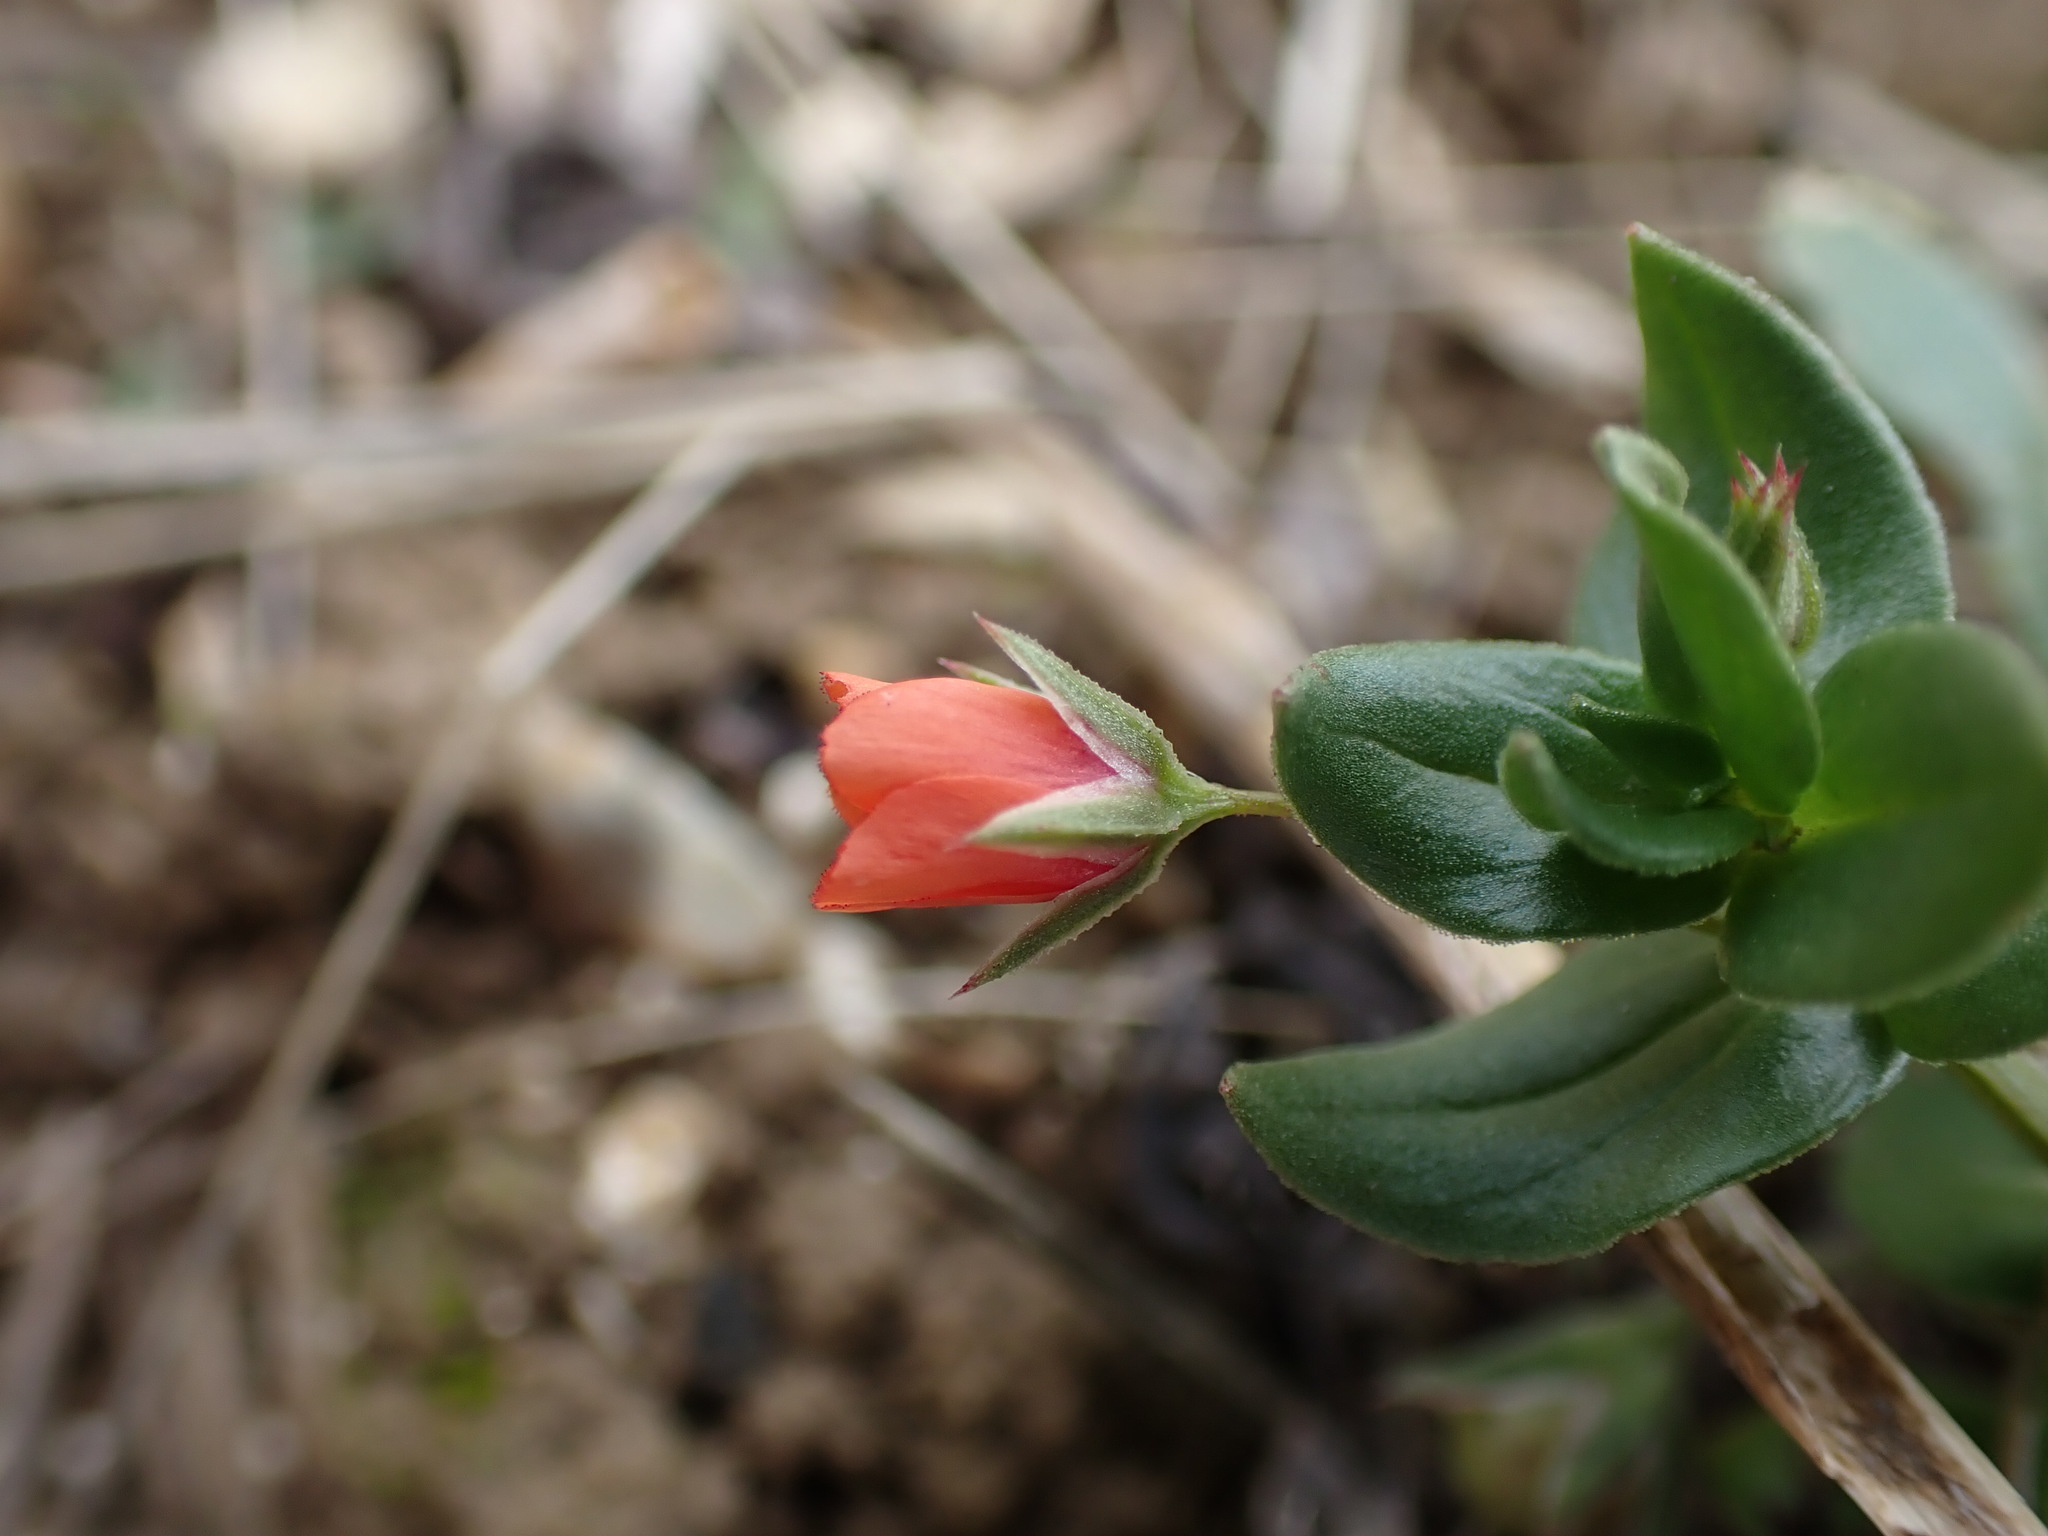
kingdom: Plantae
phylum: Tracheophyta
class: Magnoliopsida
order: Ericales
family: Primulaceae
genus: Lysimachia
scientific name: Lysimachia arvensis
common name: Scarlet pimpernel
